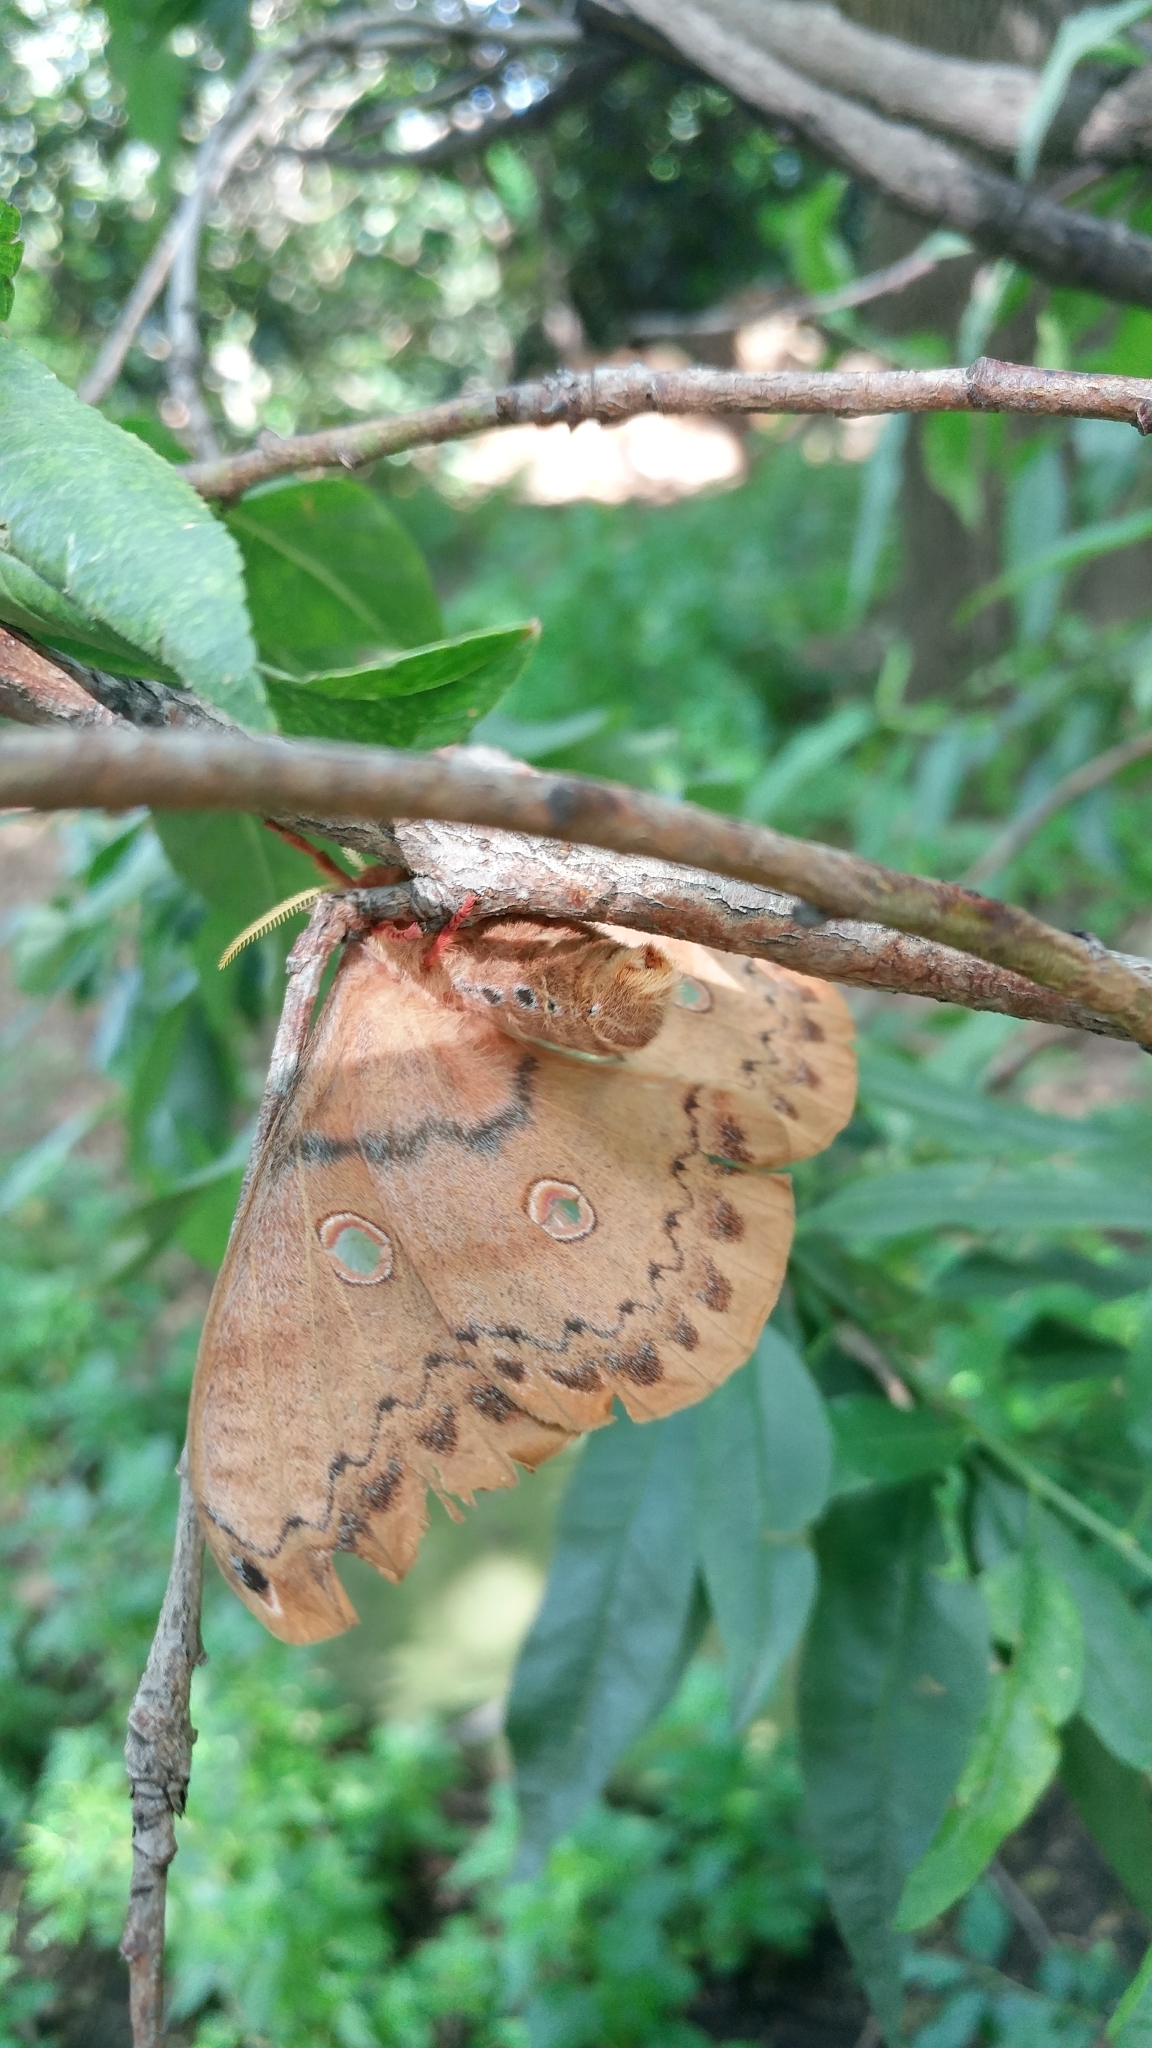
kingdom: Animalia
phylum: Arthropoda
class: Insecta
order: Lepidoptera
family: Saturniidae
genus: Copaxa
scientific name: Copaxa lavendera
